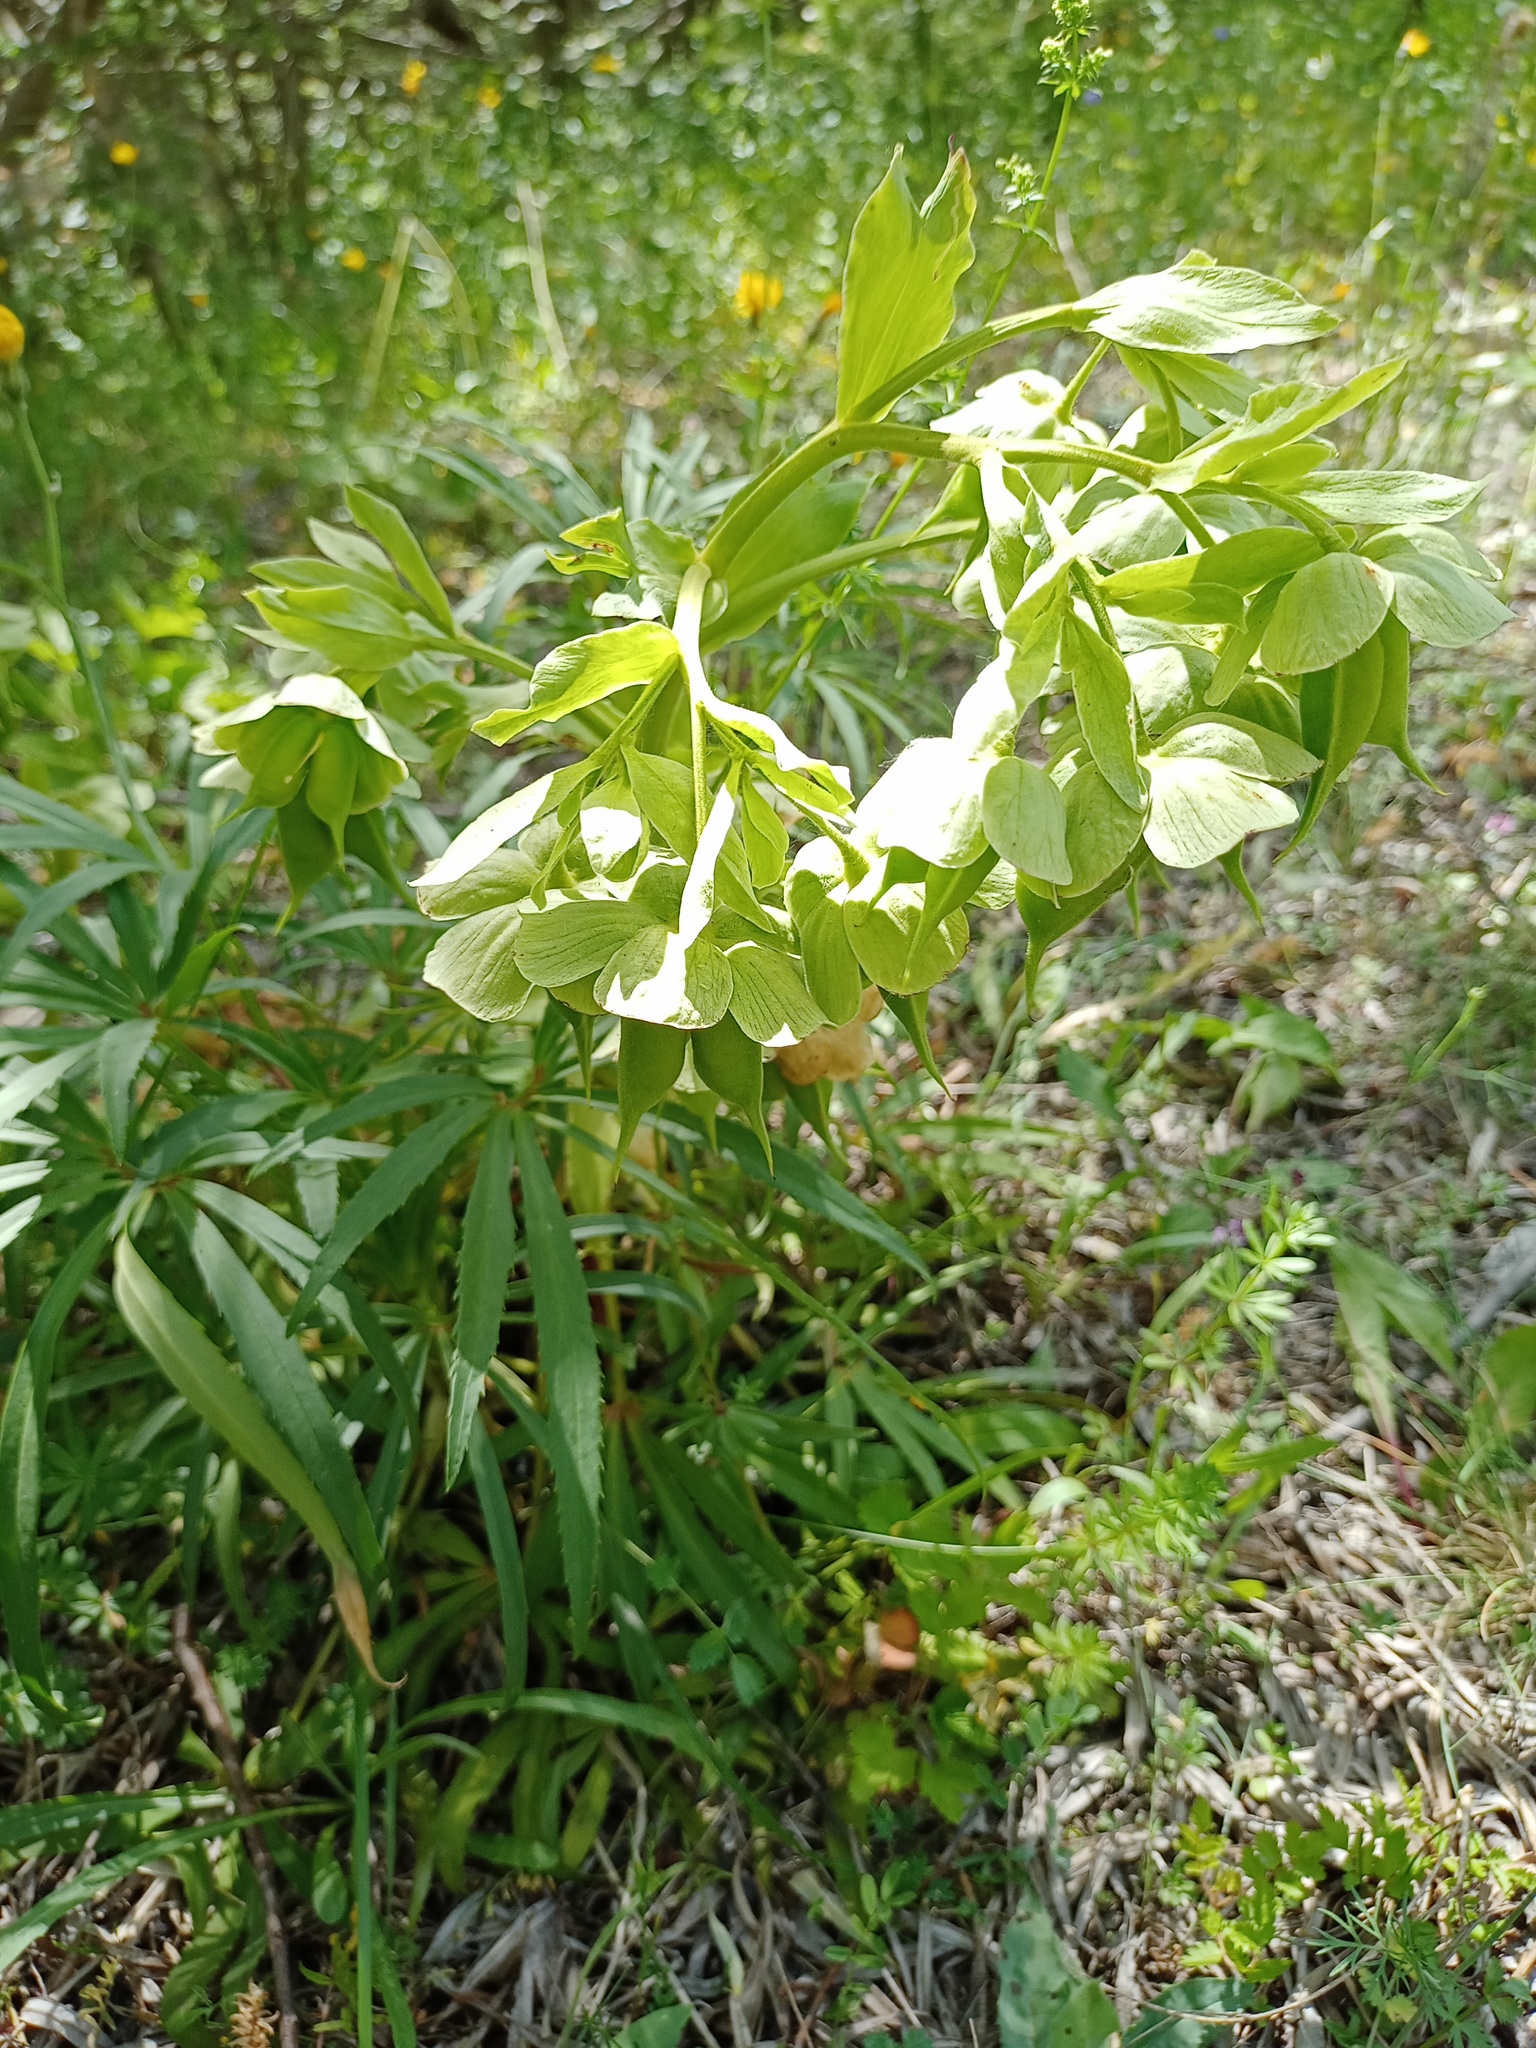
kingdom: Plantae
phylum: Tracheophyta
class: Magnoliopsida
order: Ranunculales
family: Ranunculaceae
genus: Helleborus
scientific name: Helleborus foetidus
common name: Stinking hellebore
